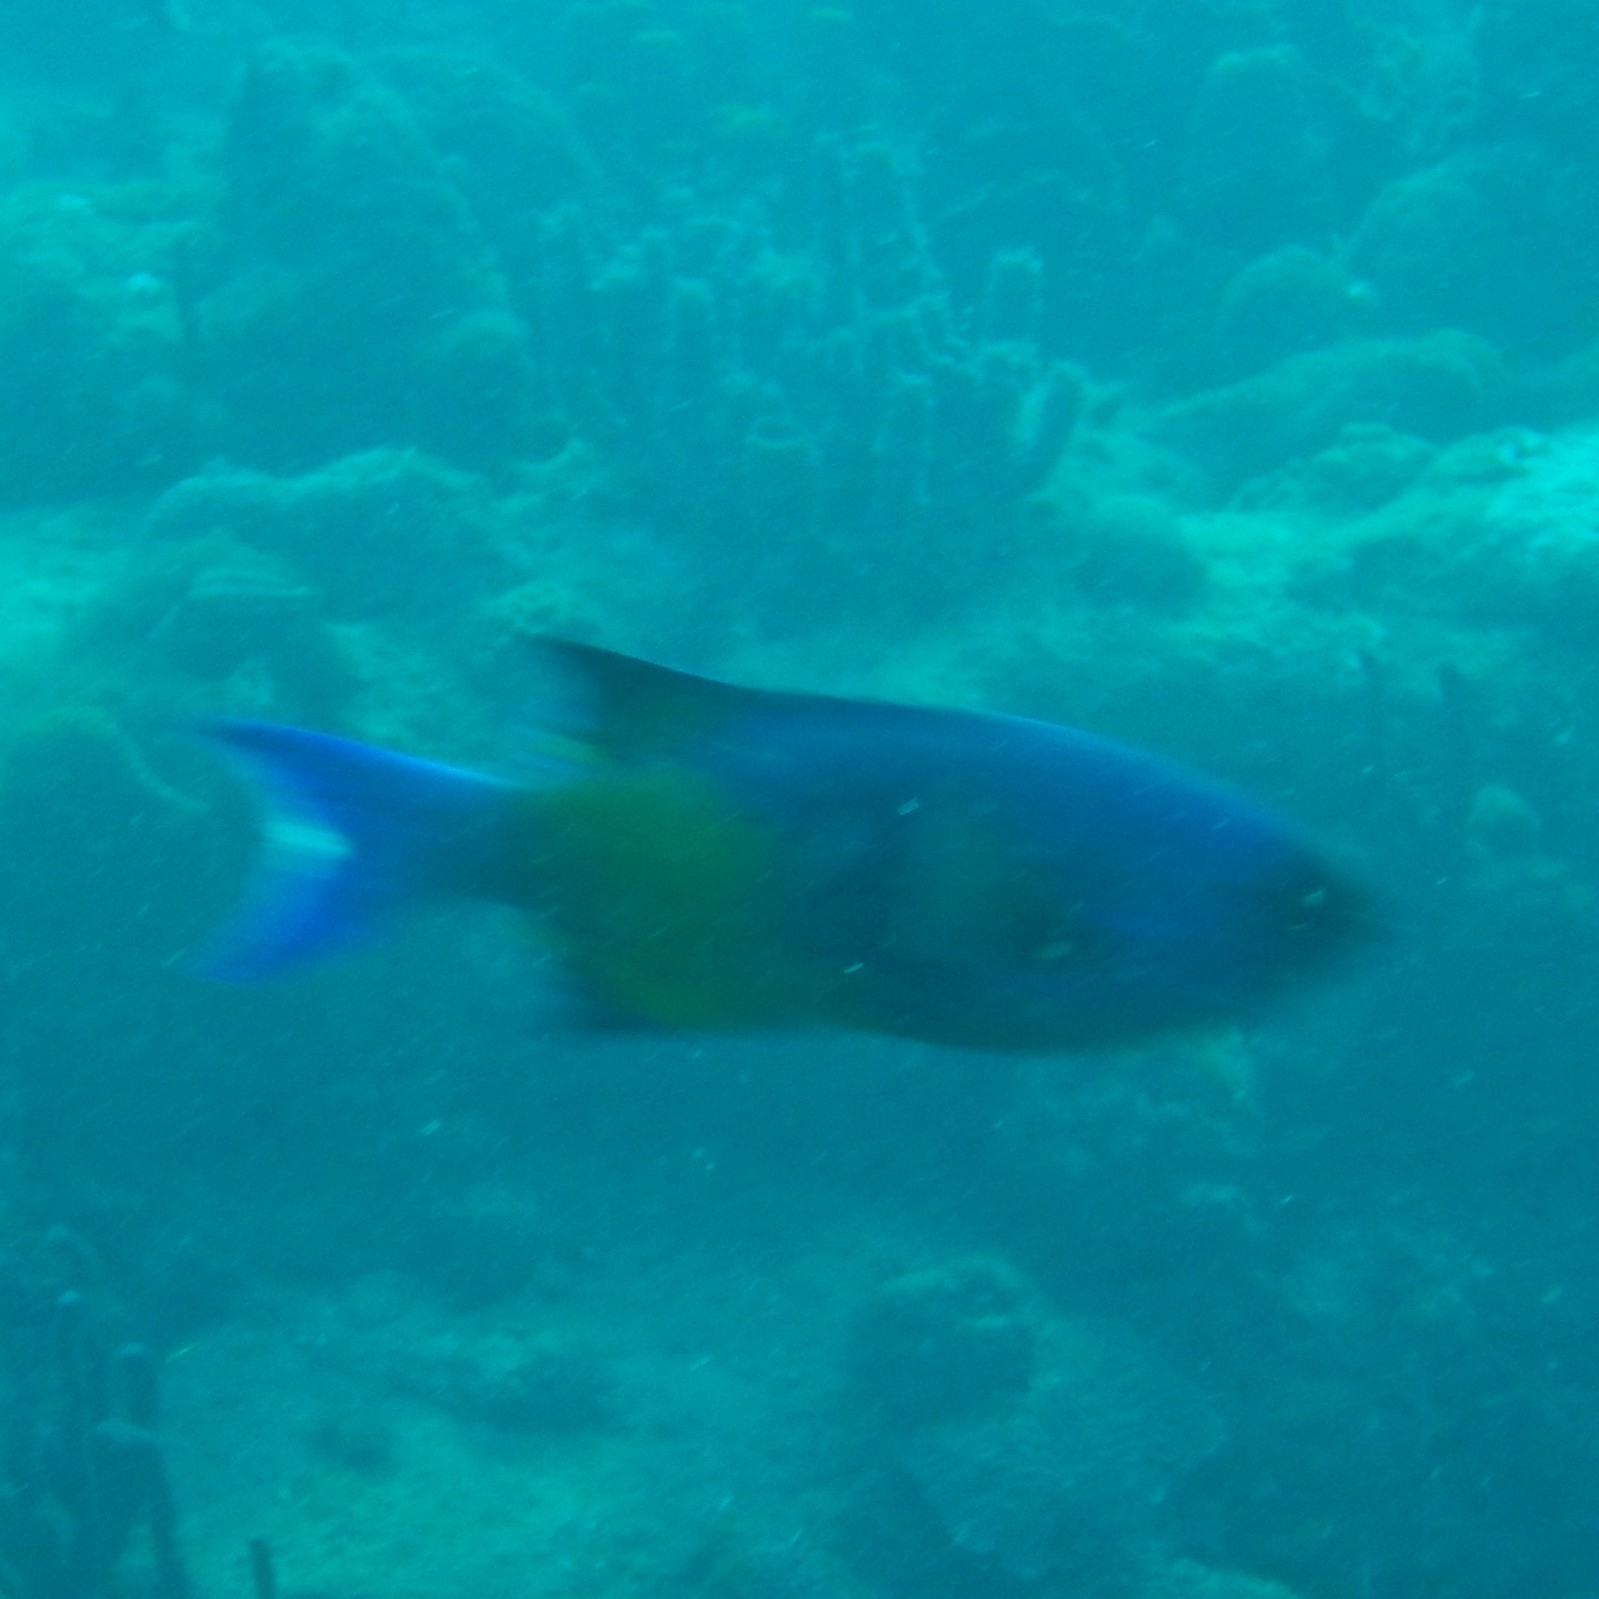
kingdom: Animalia
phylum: Chordata
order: Perciformes
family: Labridae
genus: Bodianus
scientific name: Bodianus
